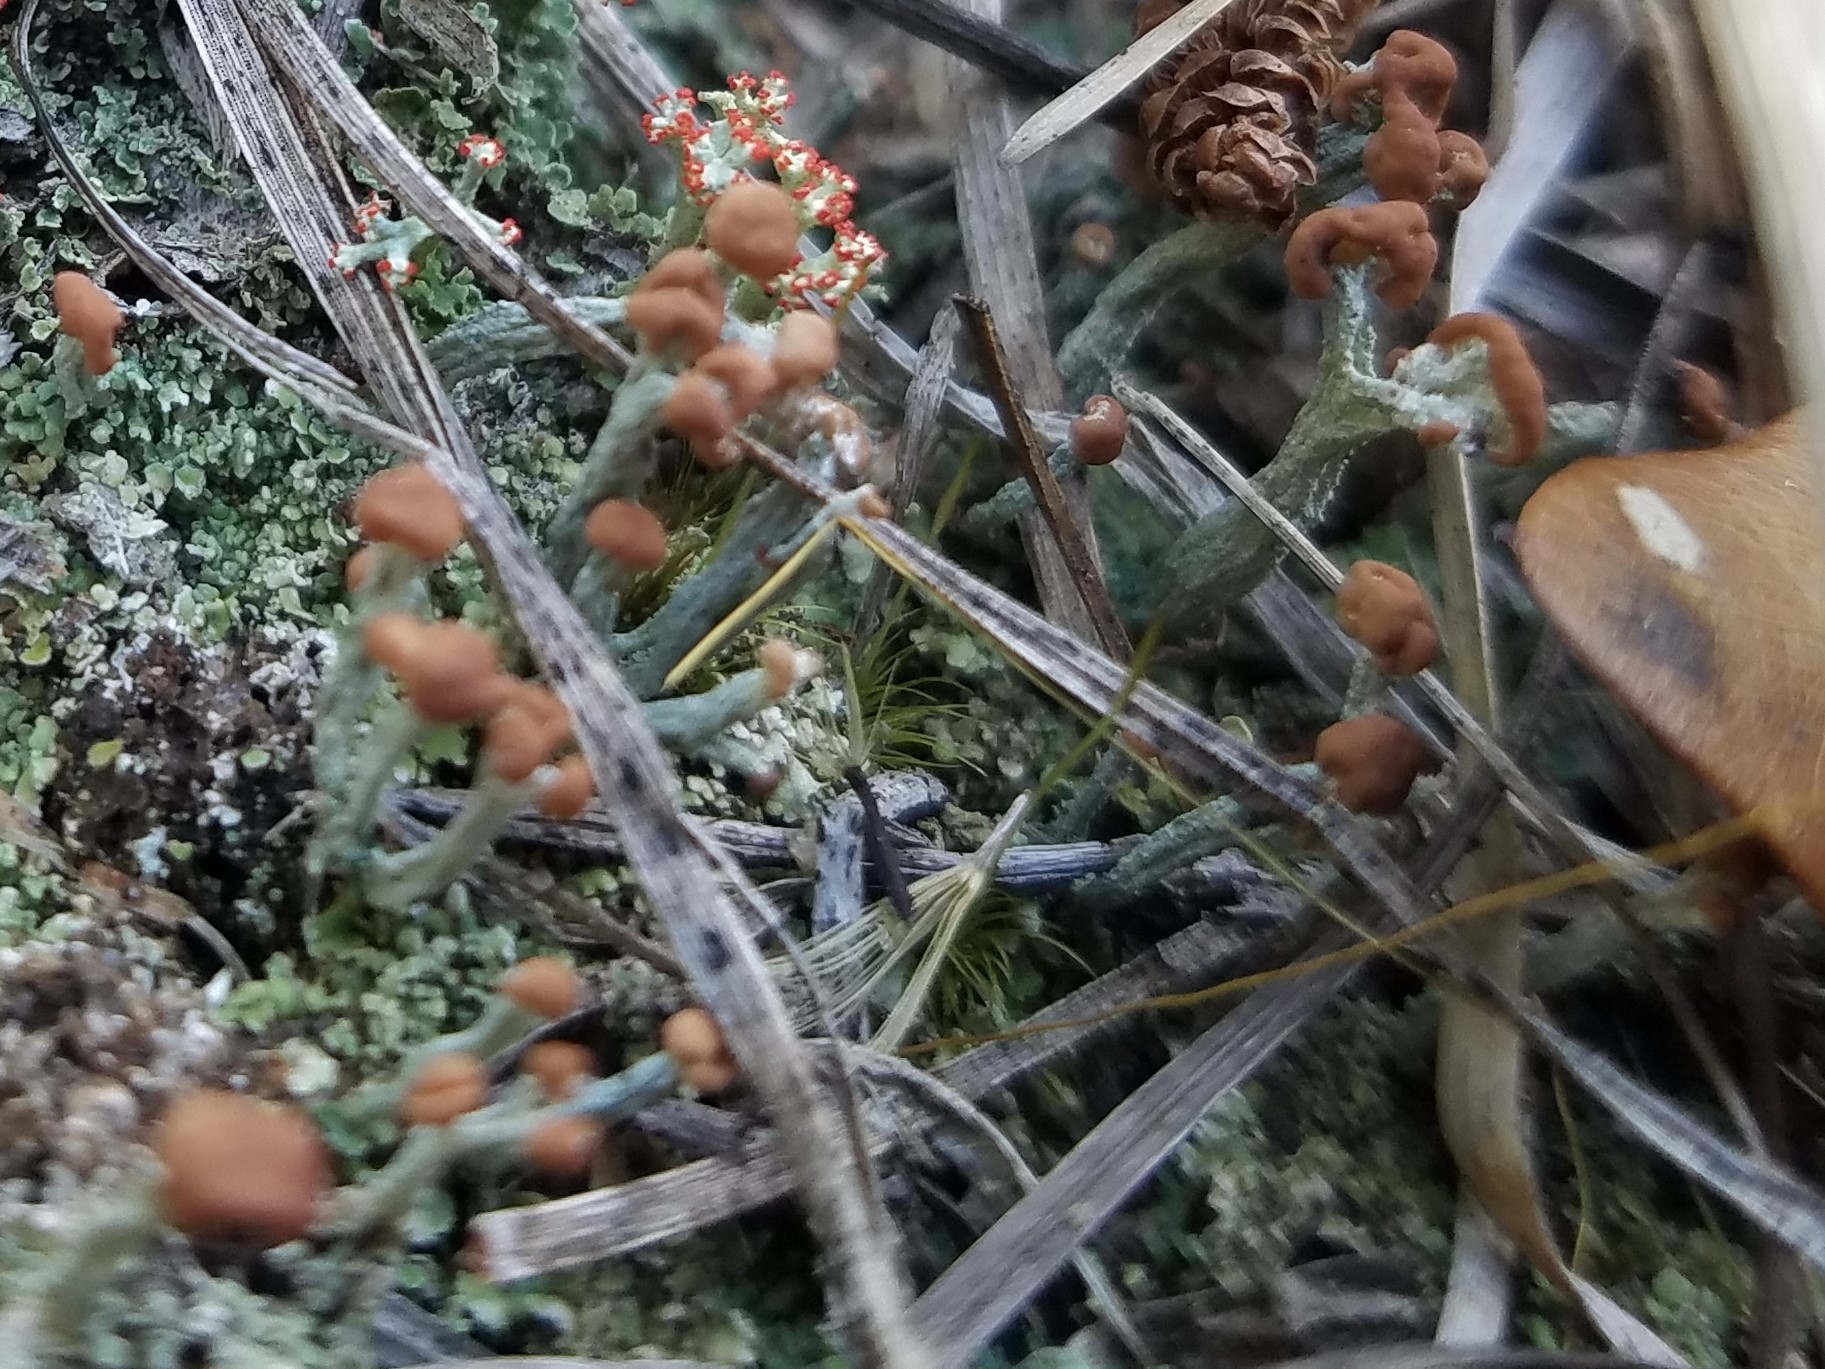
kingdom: Fungi
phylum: Ascomycota
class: Lecanoromycetes
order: Lecanorales
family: Cladoniaceae
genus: Cladonia
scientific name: Cladonia peziziformis
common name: Cup lichen
